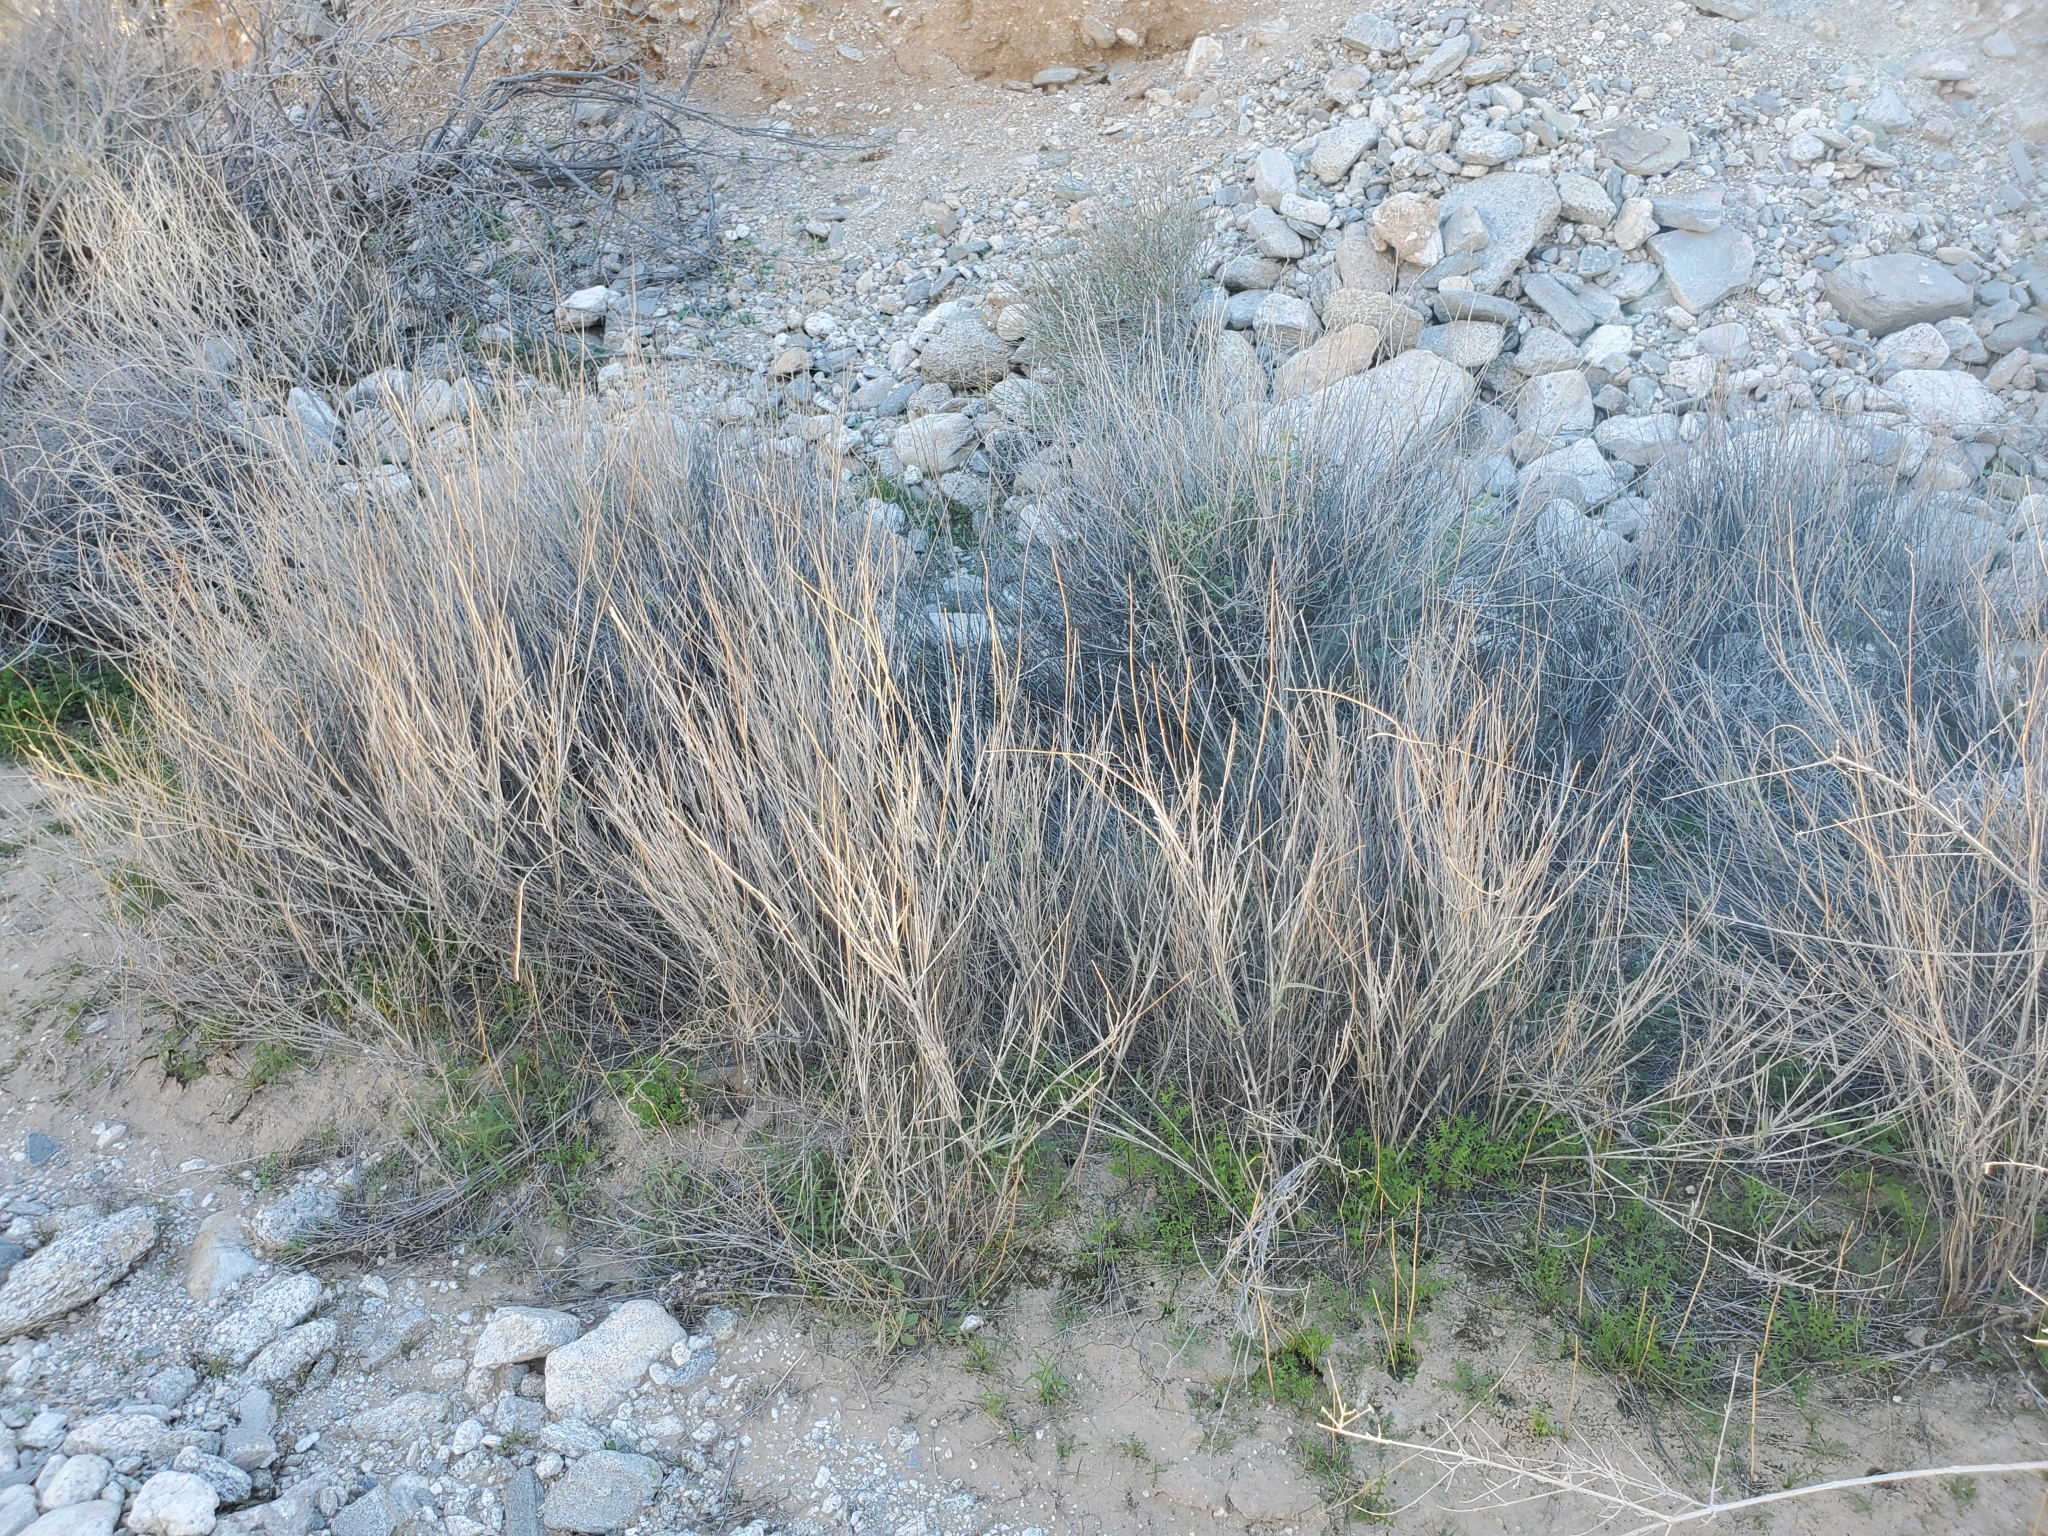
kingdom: Plantae
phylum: Tracheophyta
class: Liliopsida
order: Poales
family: Poaceae
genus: Hilaria
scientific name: Hilaria rigida
